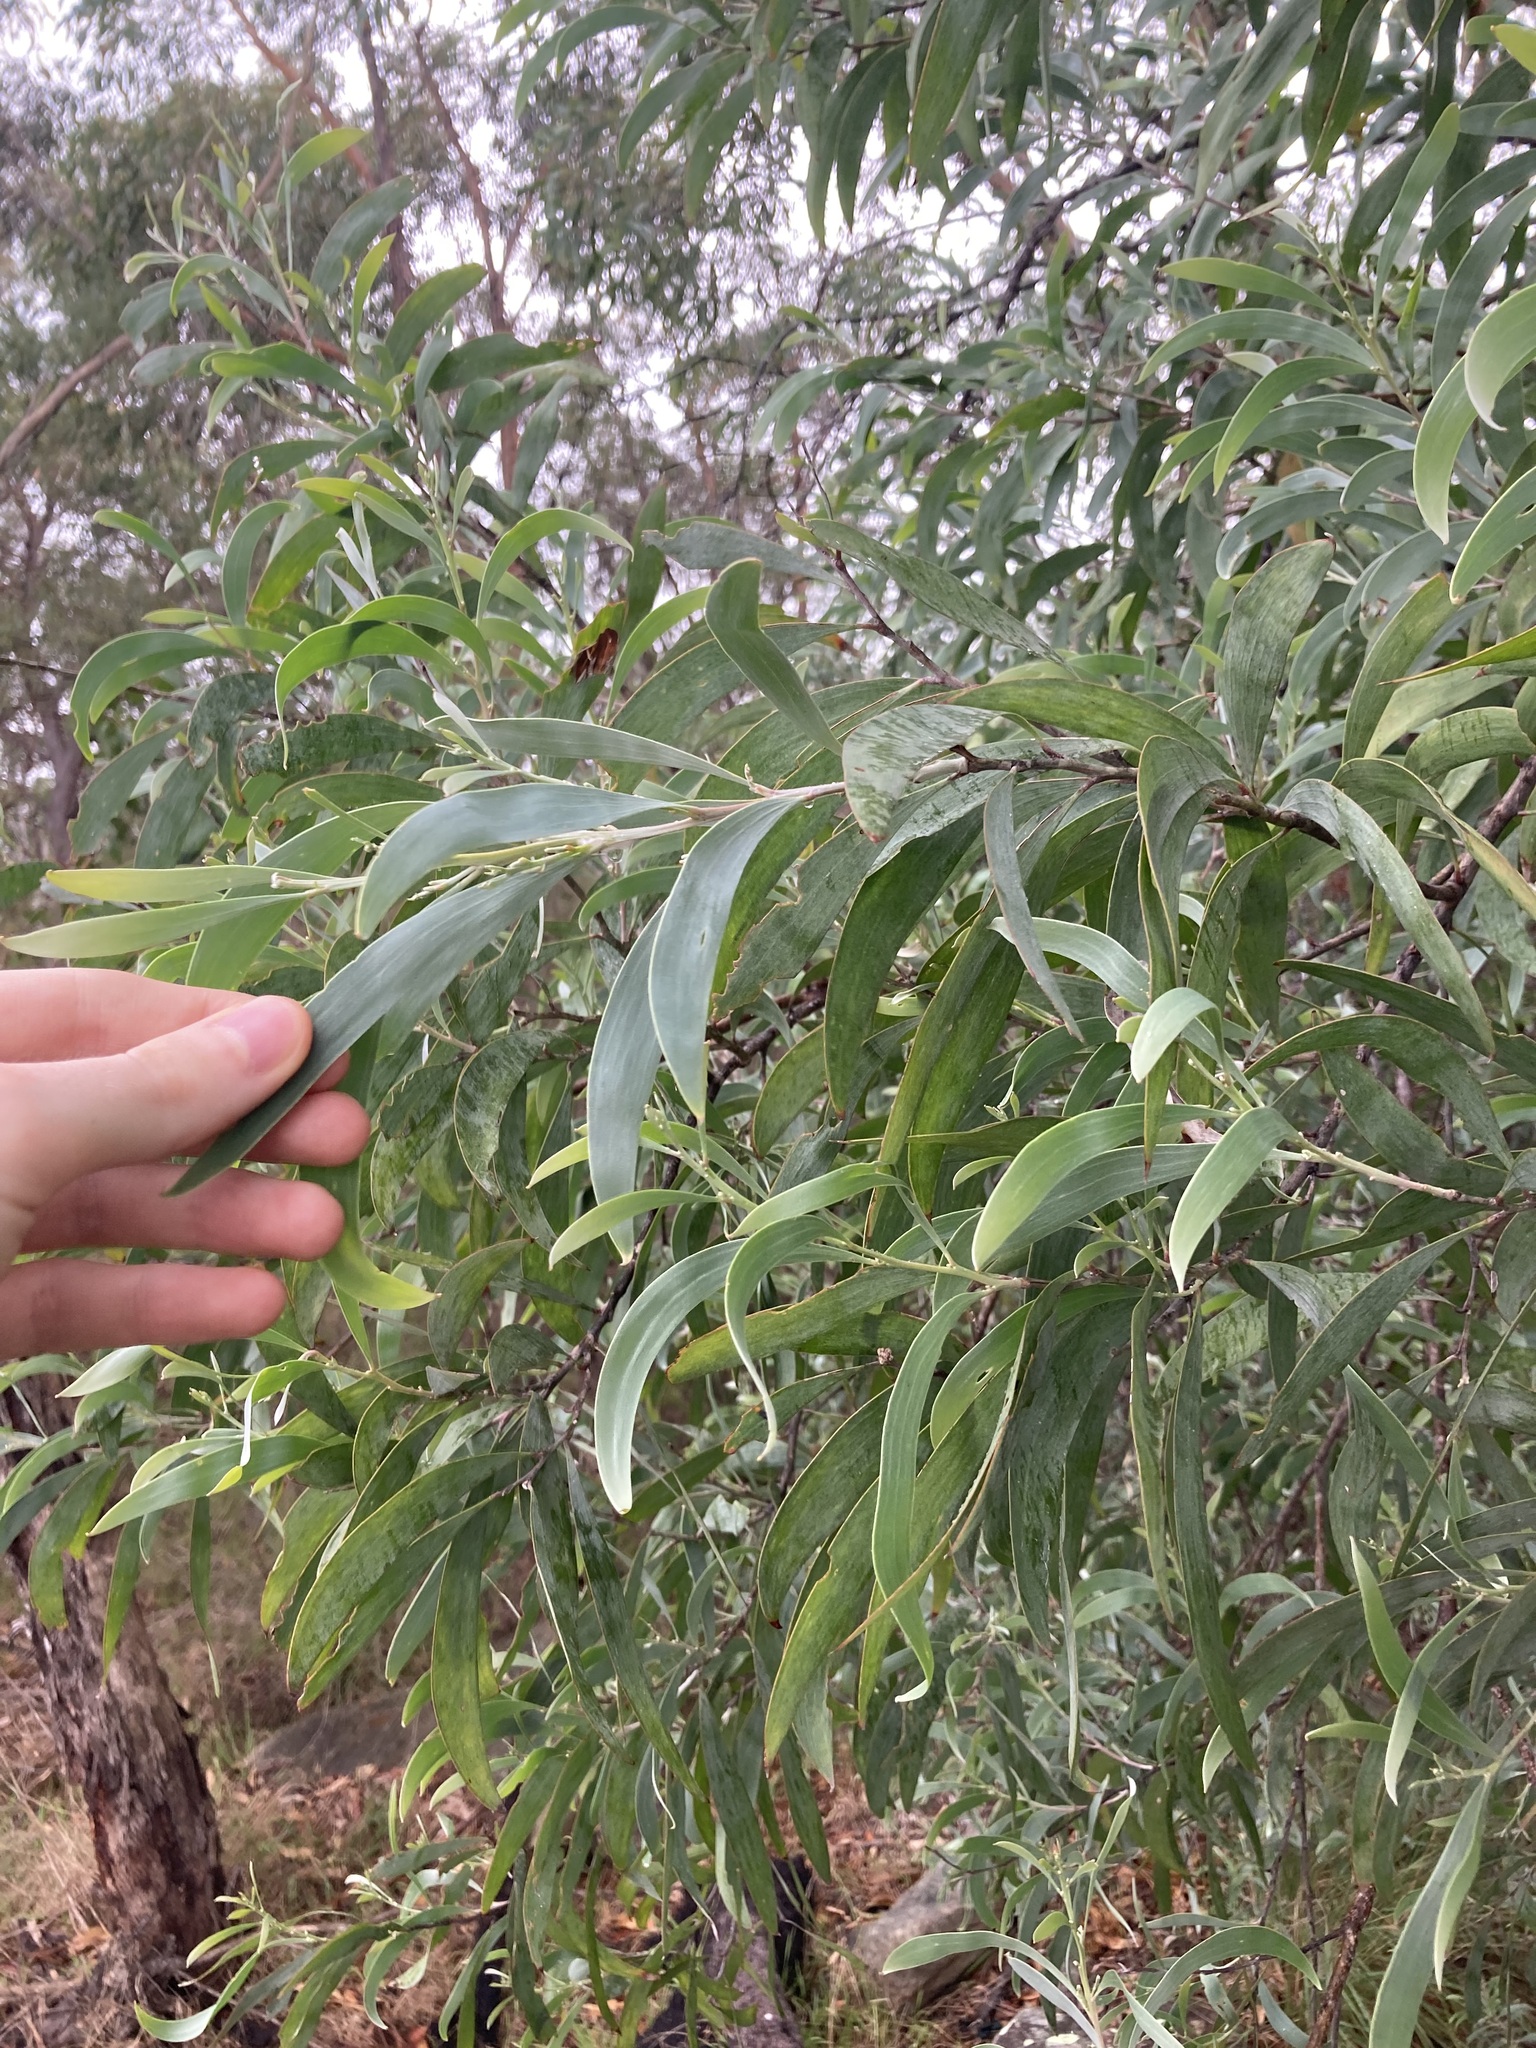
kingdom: Plantae
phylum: Tracheophyta
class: Magnoliopsida
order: Fabales
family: Fabaceae
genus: Acacia
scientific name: Acacia binervia
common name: Coast myall
